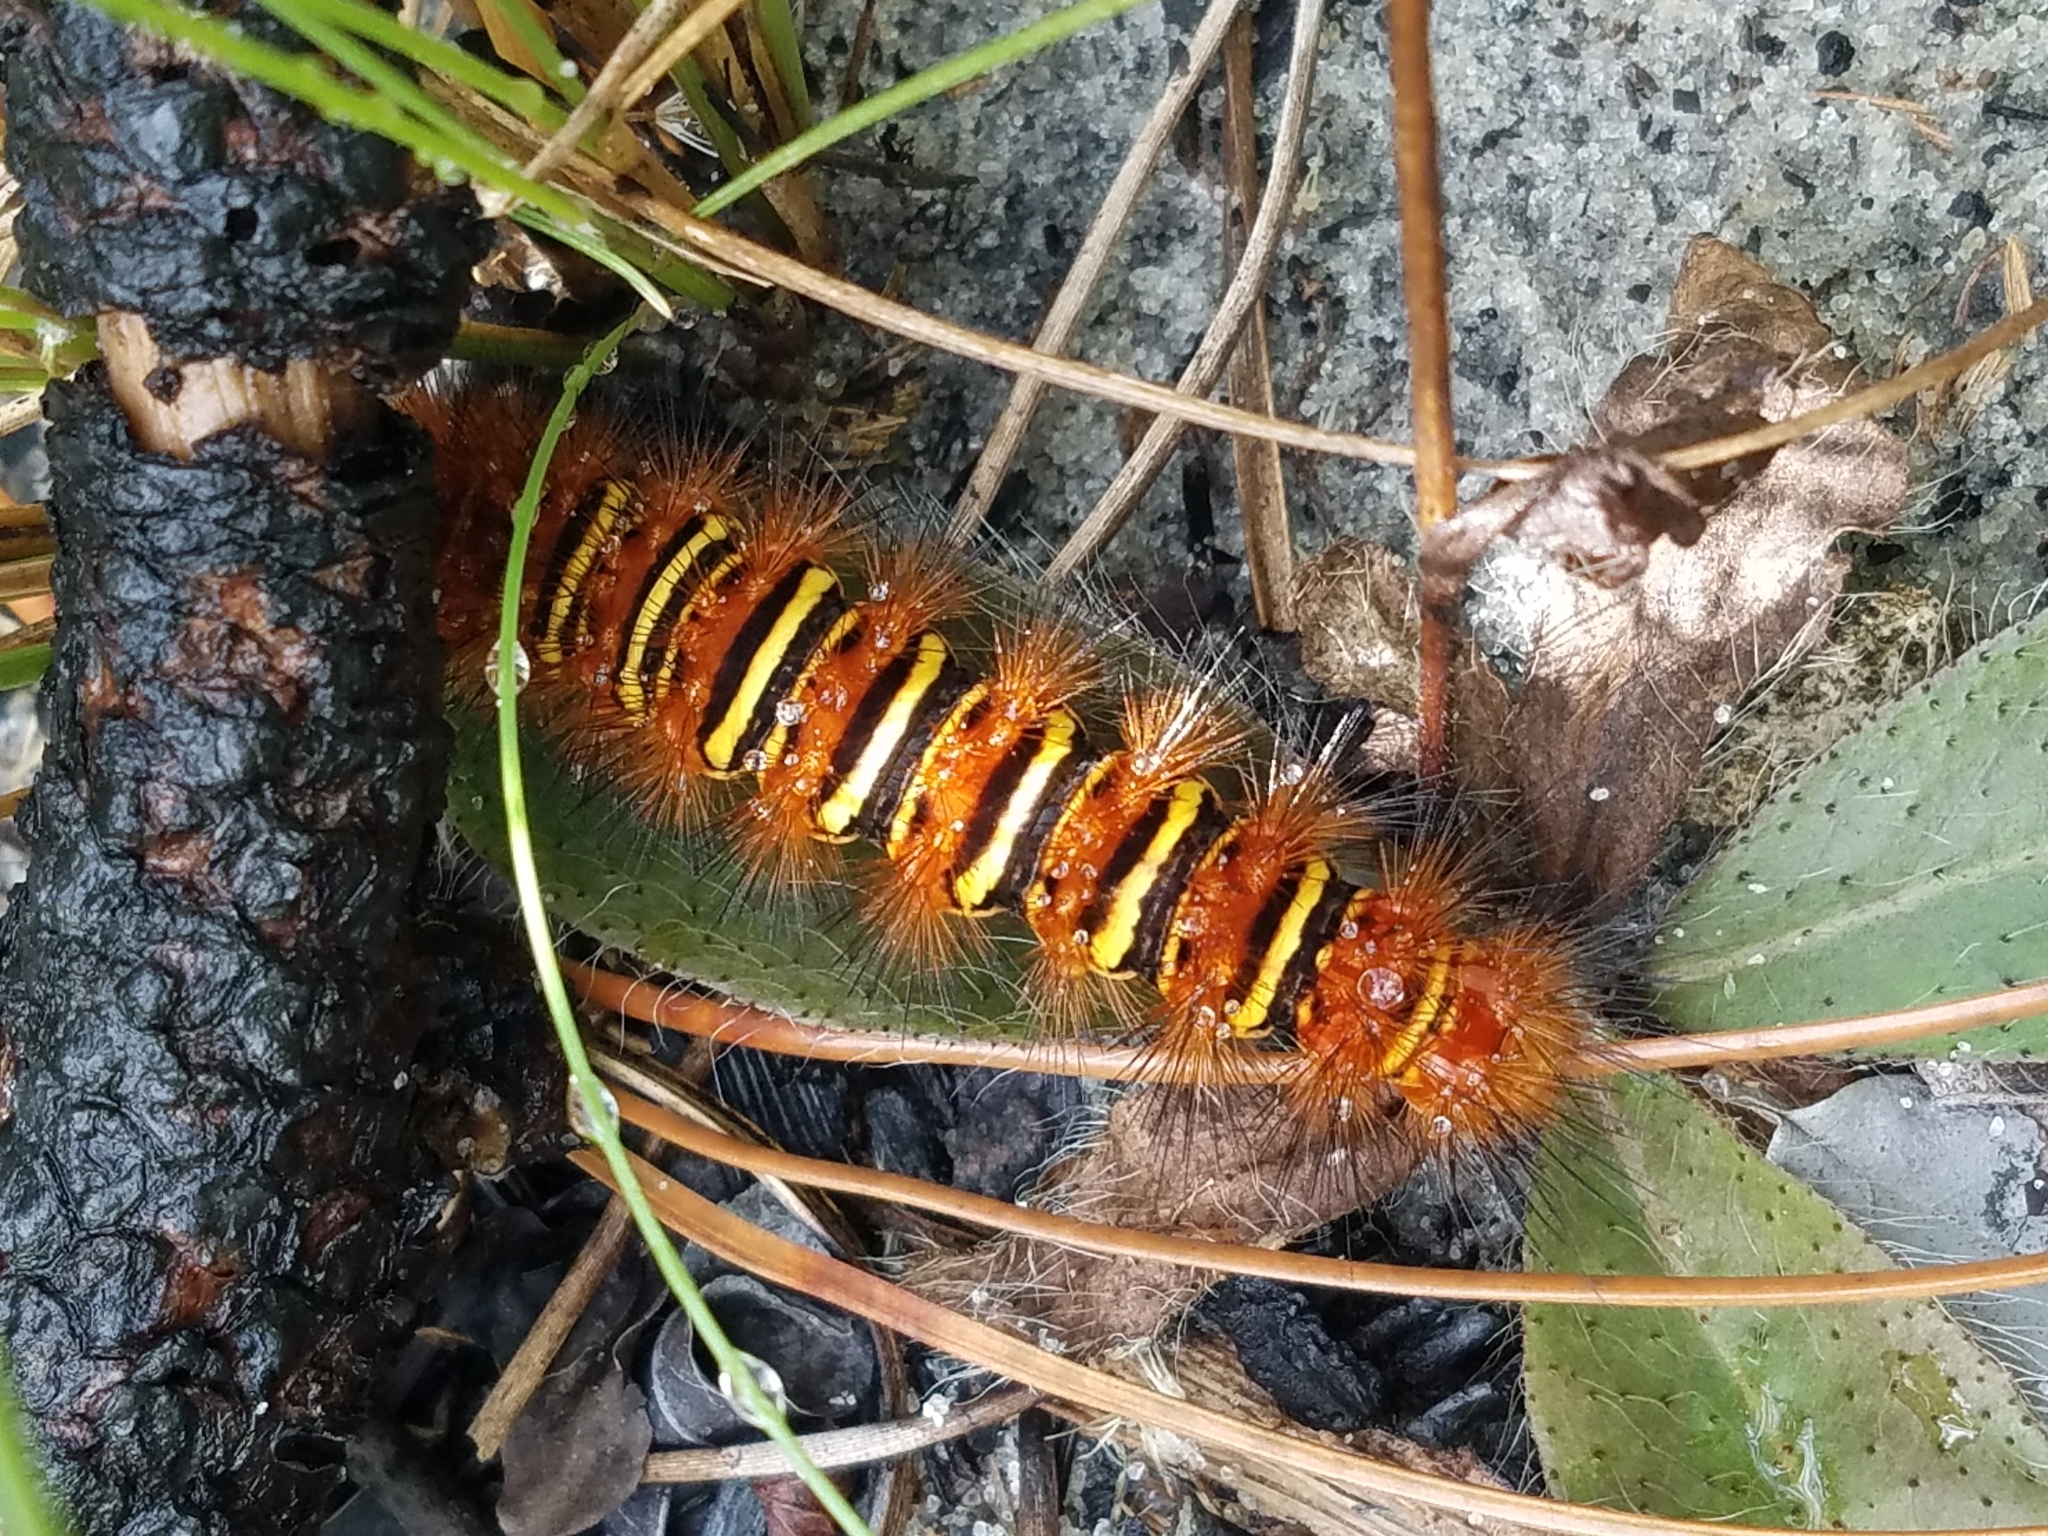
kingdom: Animalia
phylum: Arthropoda
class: Insecta
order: Lepidoptera
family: Erebidae
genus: Seirarctia
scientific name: Seirarctia echo
